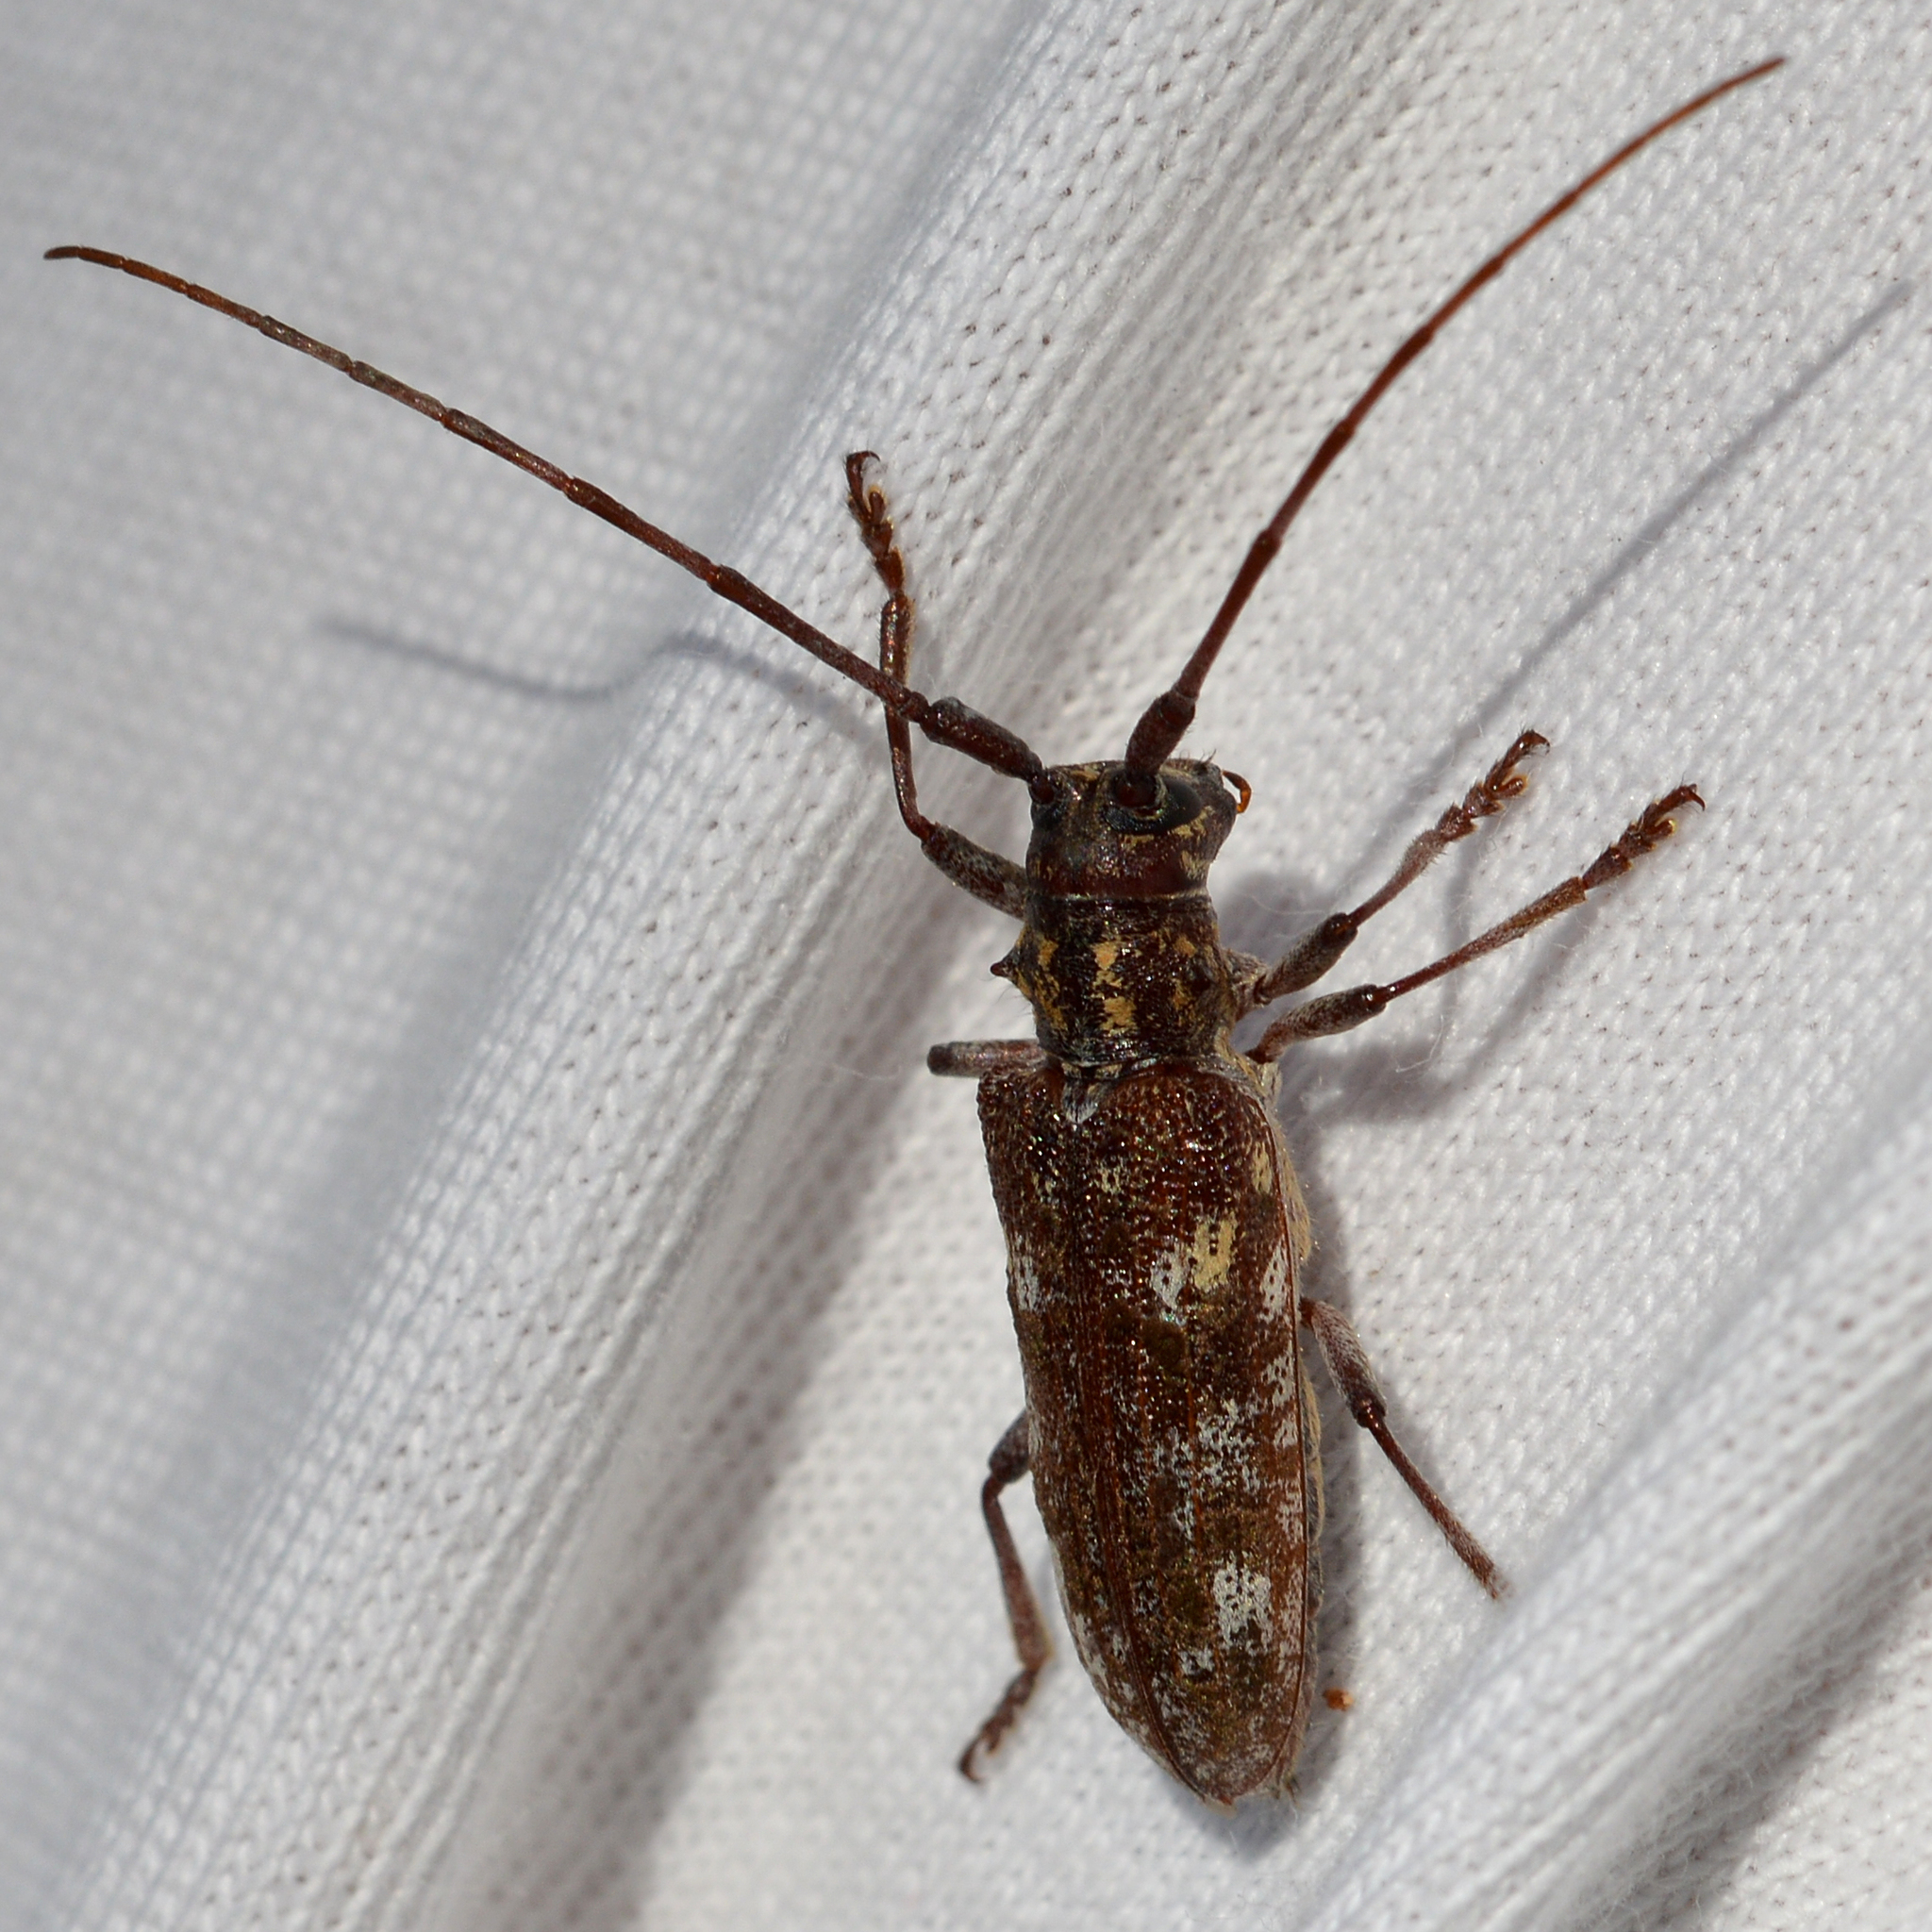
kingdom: Animalia
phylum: Arthropoda
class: Insecta
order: Coleoptera
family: Cerambycidae
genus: Monochamus
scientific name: Monochamus carolinensis
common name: Carolina pine sawyer
